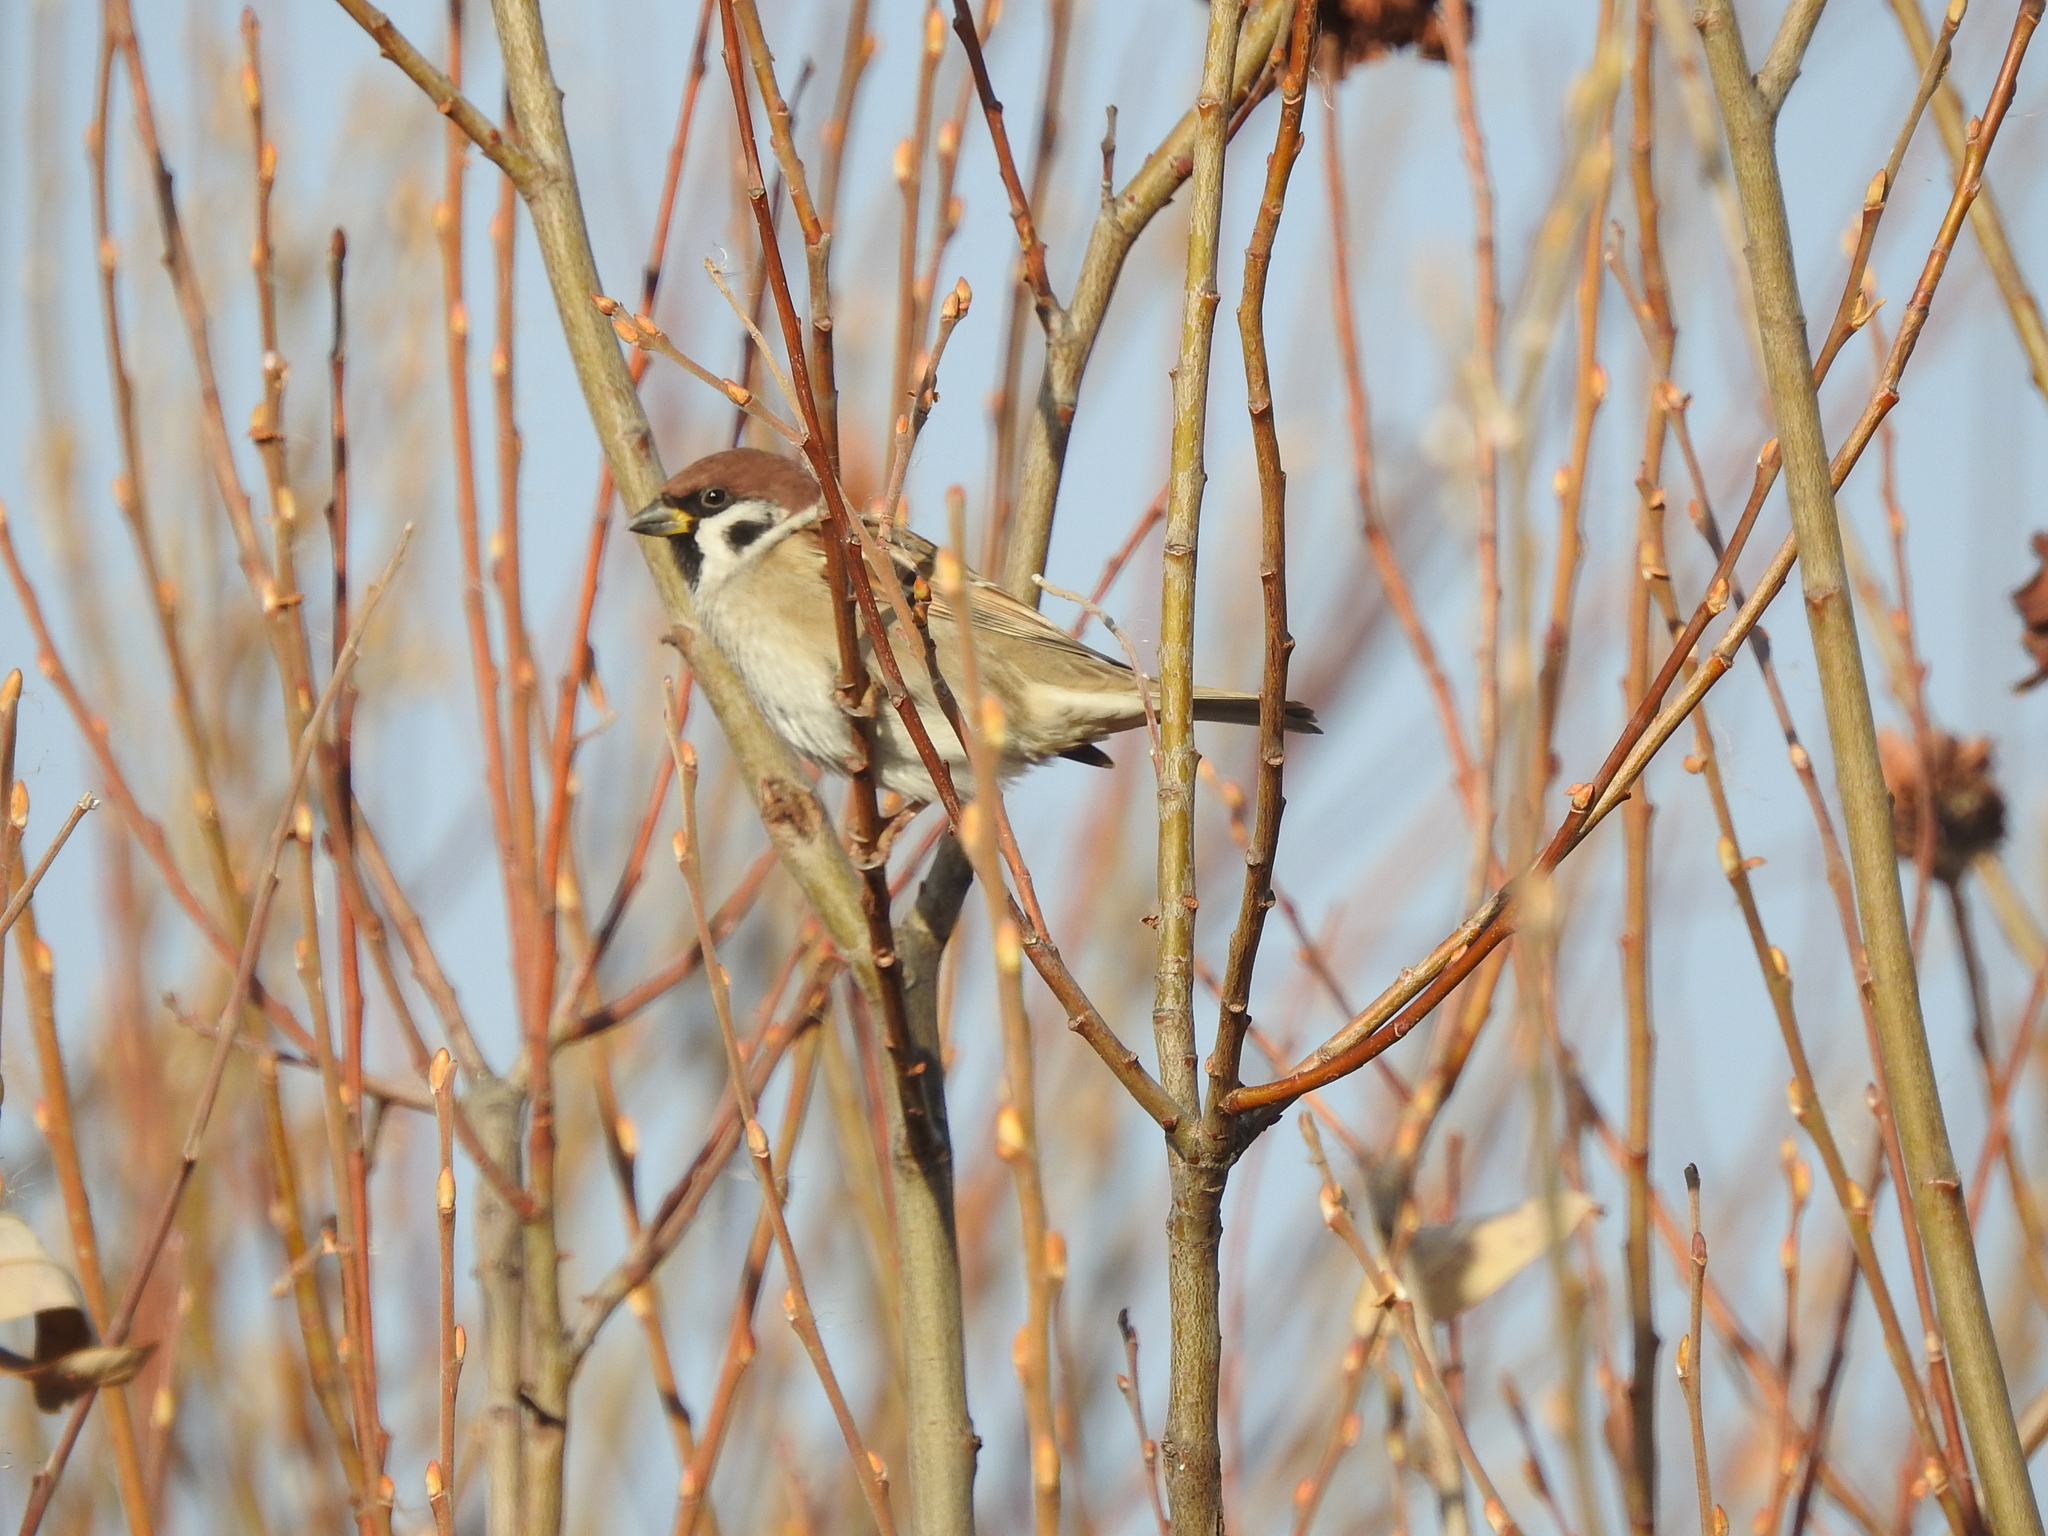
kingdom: Animalia
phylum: Chordata
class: Aves
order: Passeriformes
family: Passeridae
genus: Passer
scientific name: Passer montanus
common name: Eurasian tree sparrow
